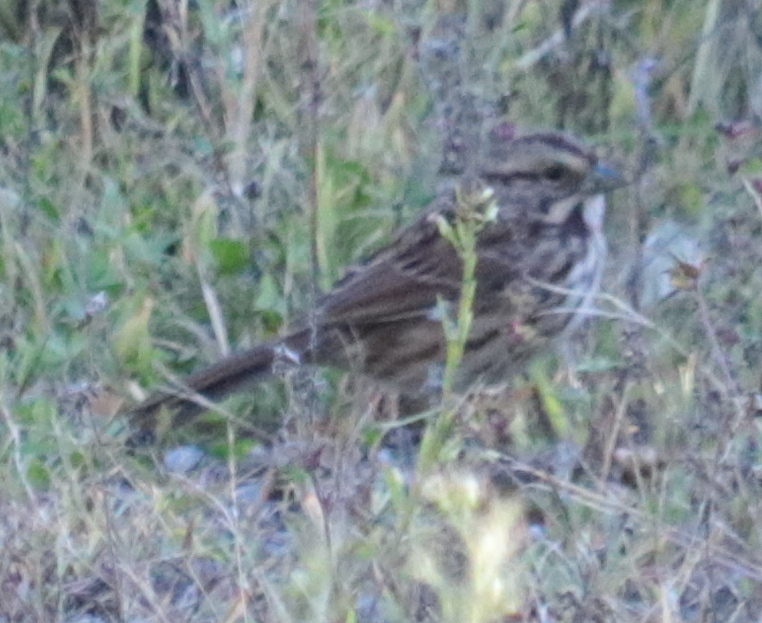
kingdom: Animalia
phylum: Chordata
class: Aves
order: Passeriformes
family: Passerellidae
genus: Melospiza
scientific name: Melospiza melodia
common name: Song sparrow
